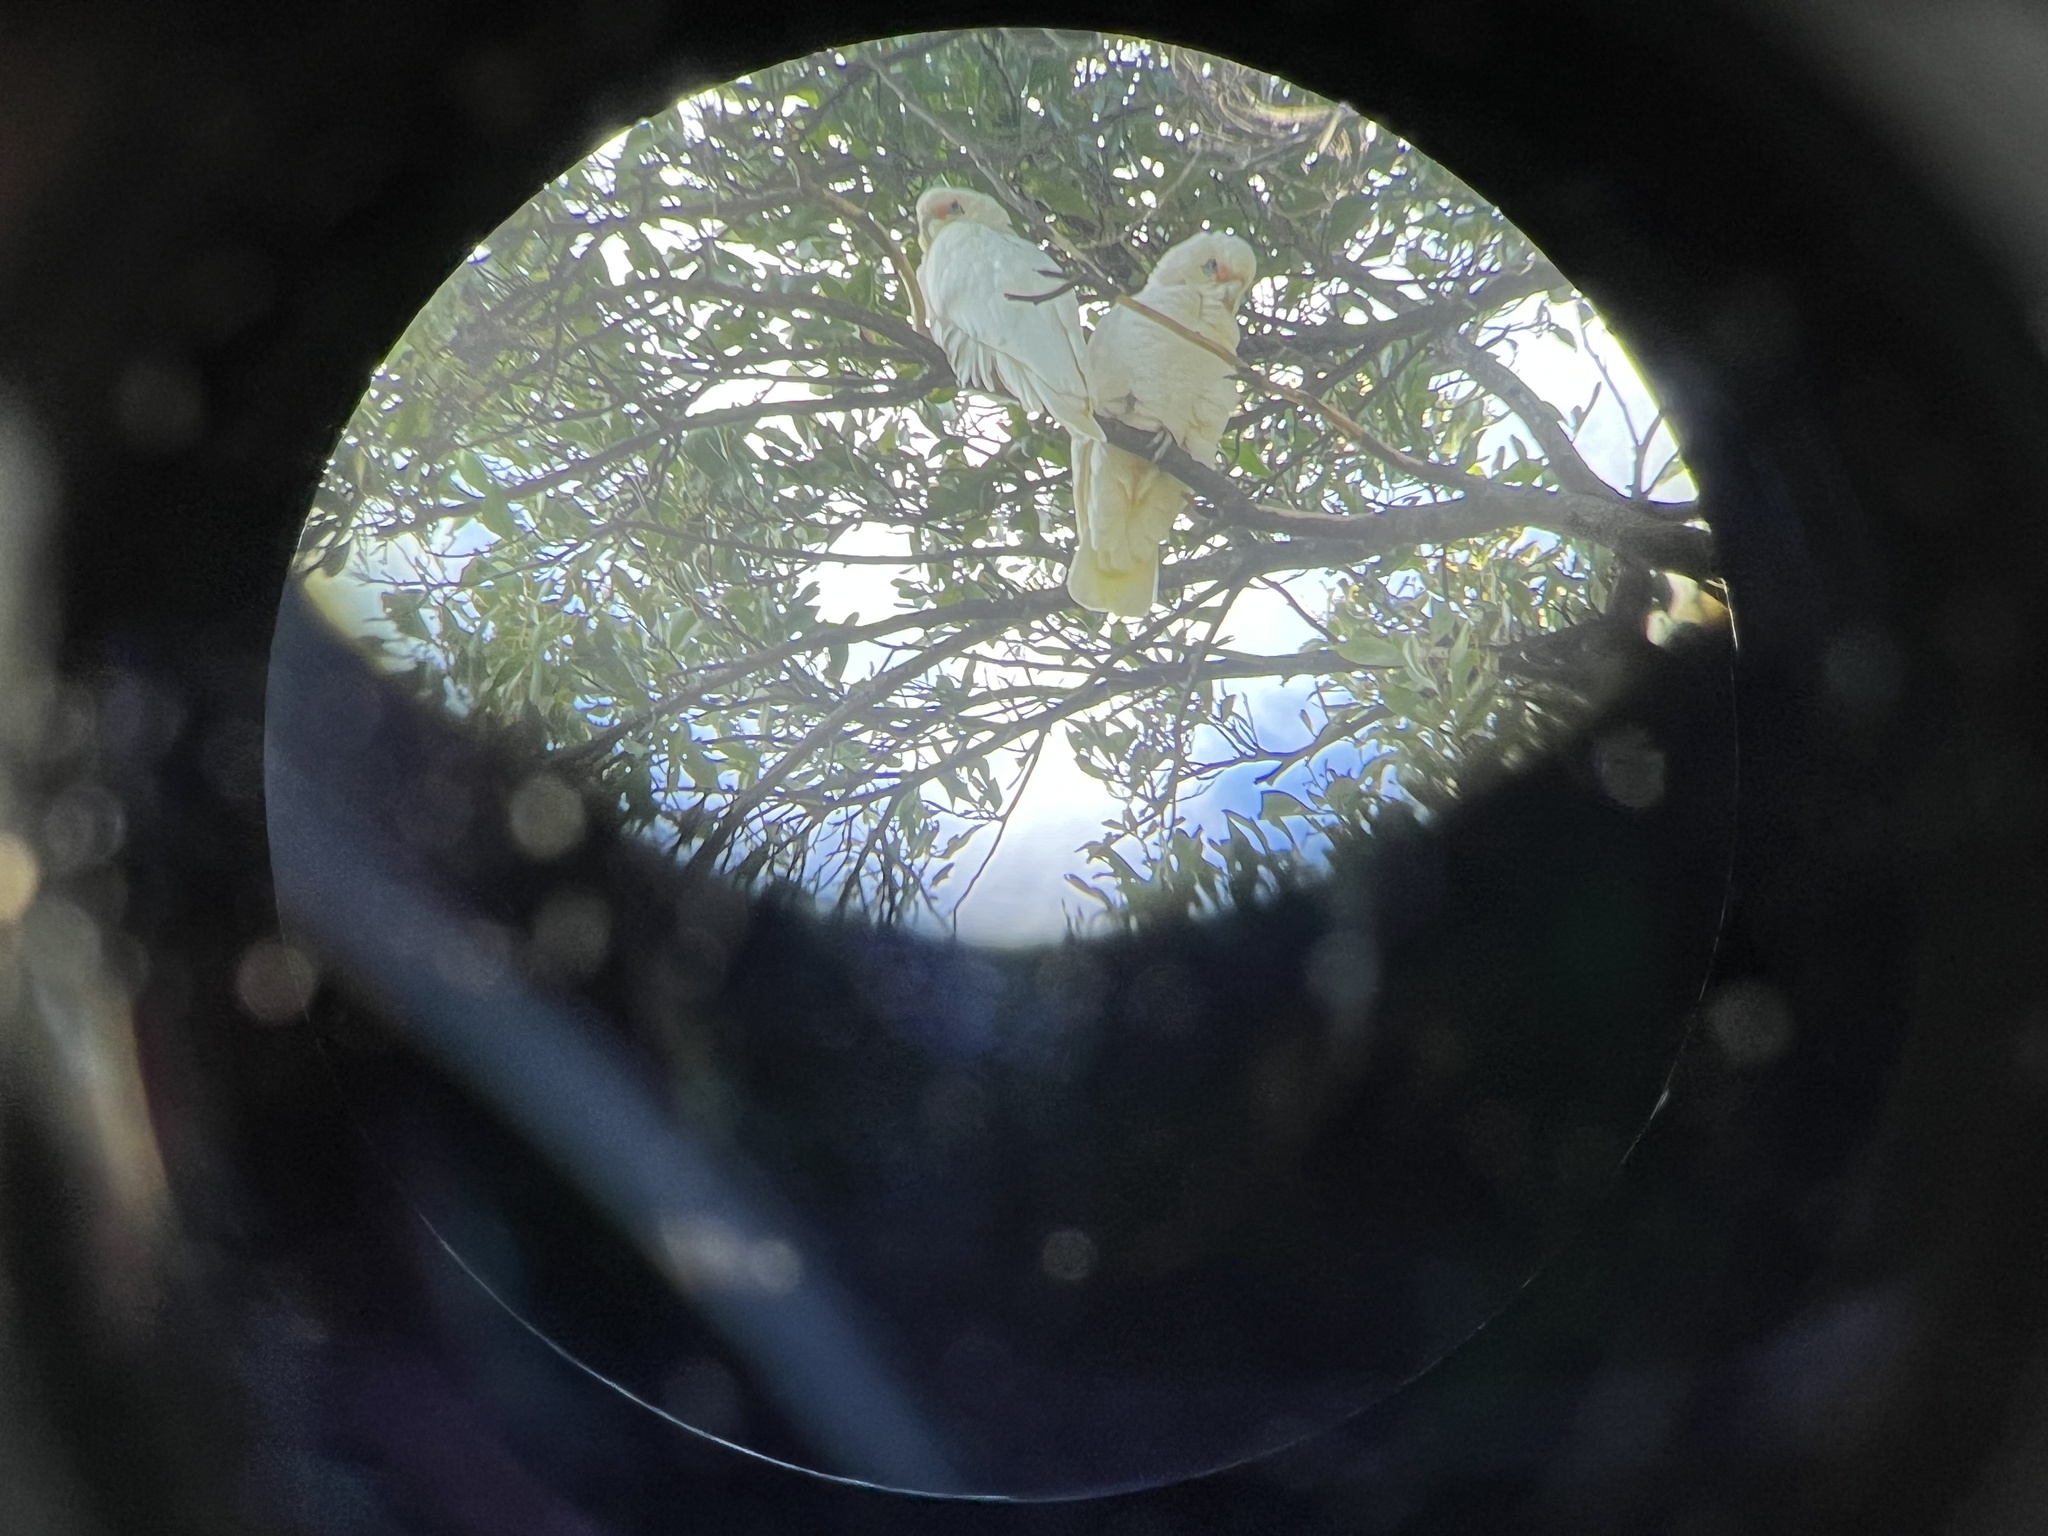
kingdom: Animalia
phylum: Chordata
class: Aves
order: Psittaciformes
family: Psittacidae
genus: Cacatua
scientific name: Cacatua sanguinea
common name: Little corella
